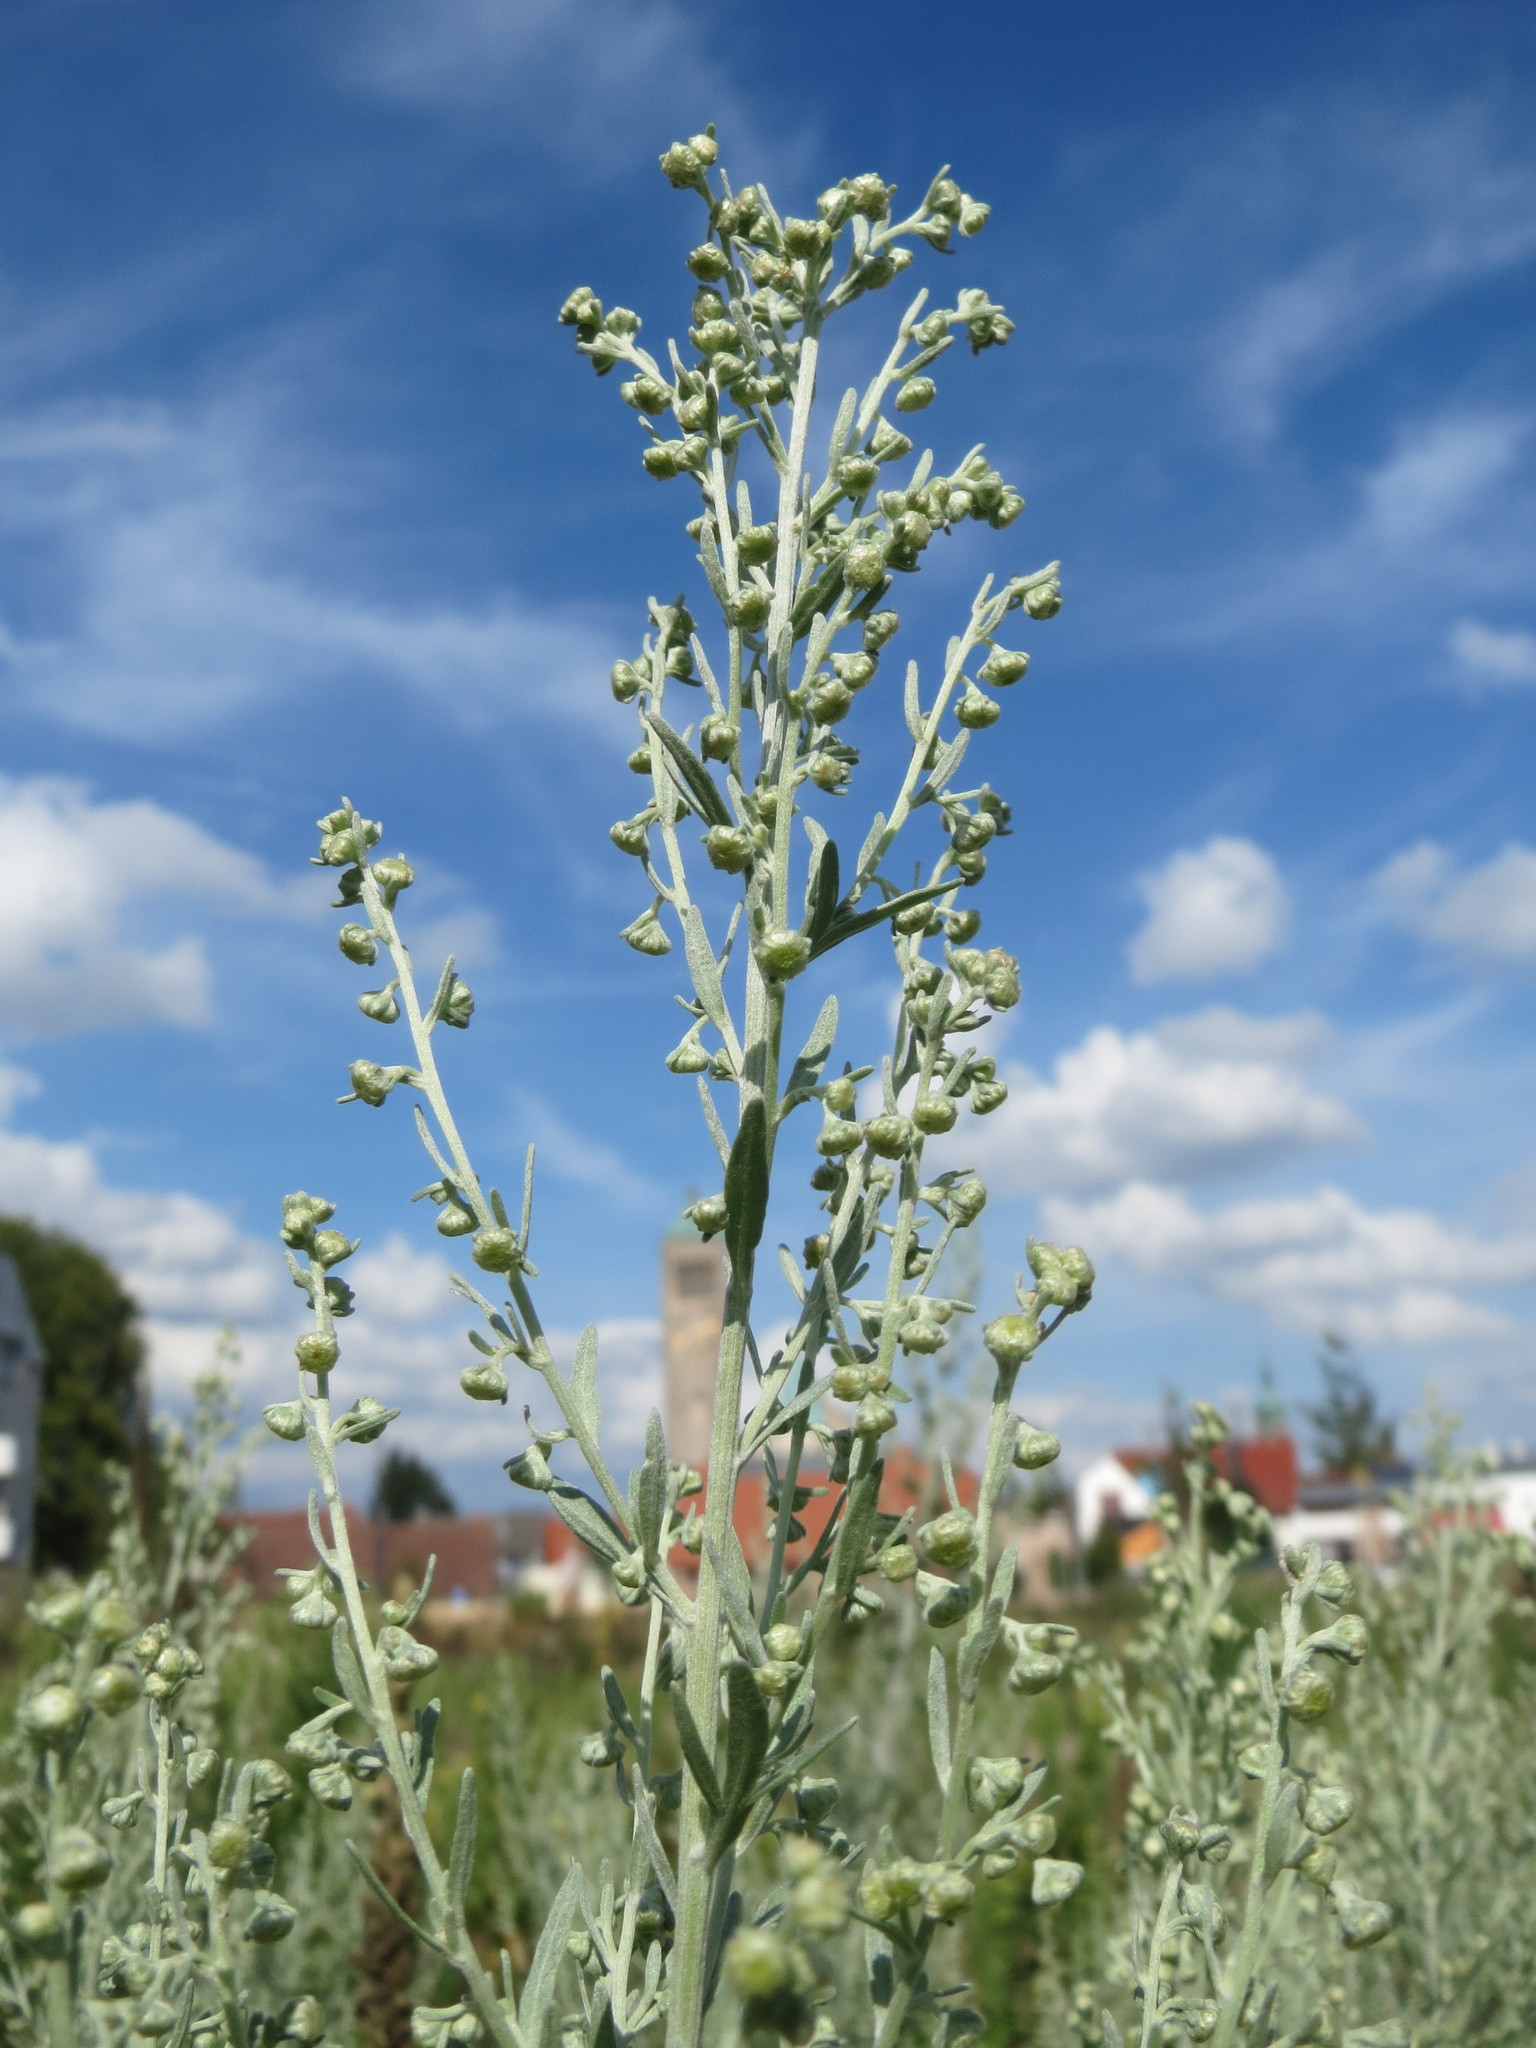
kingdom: Plantae
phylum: Tracheophyta
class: Magnoliopsida
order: Asterales
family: Asteraceae
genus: Artemisia
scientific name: Artemisia absinthium
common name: Wormwood
